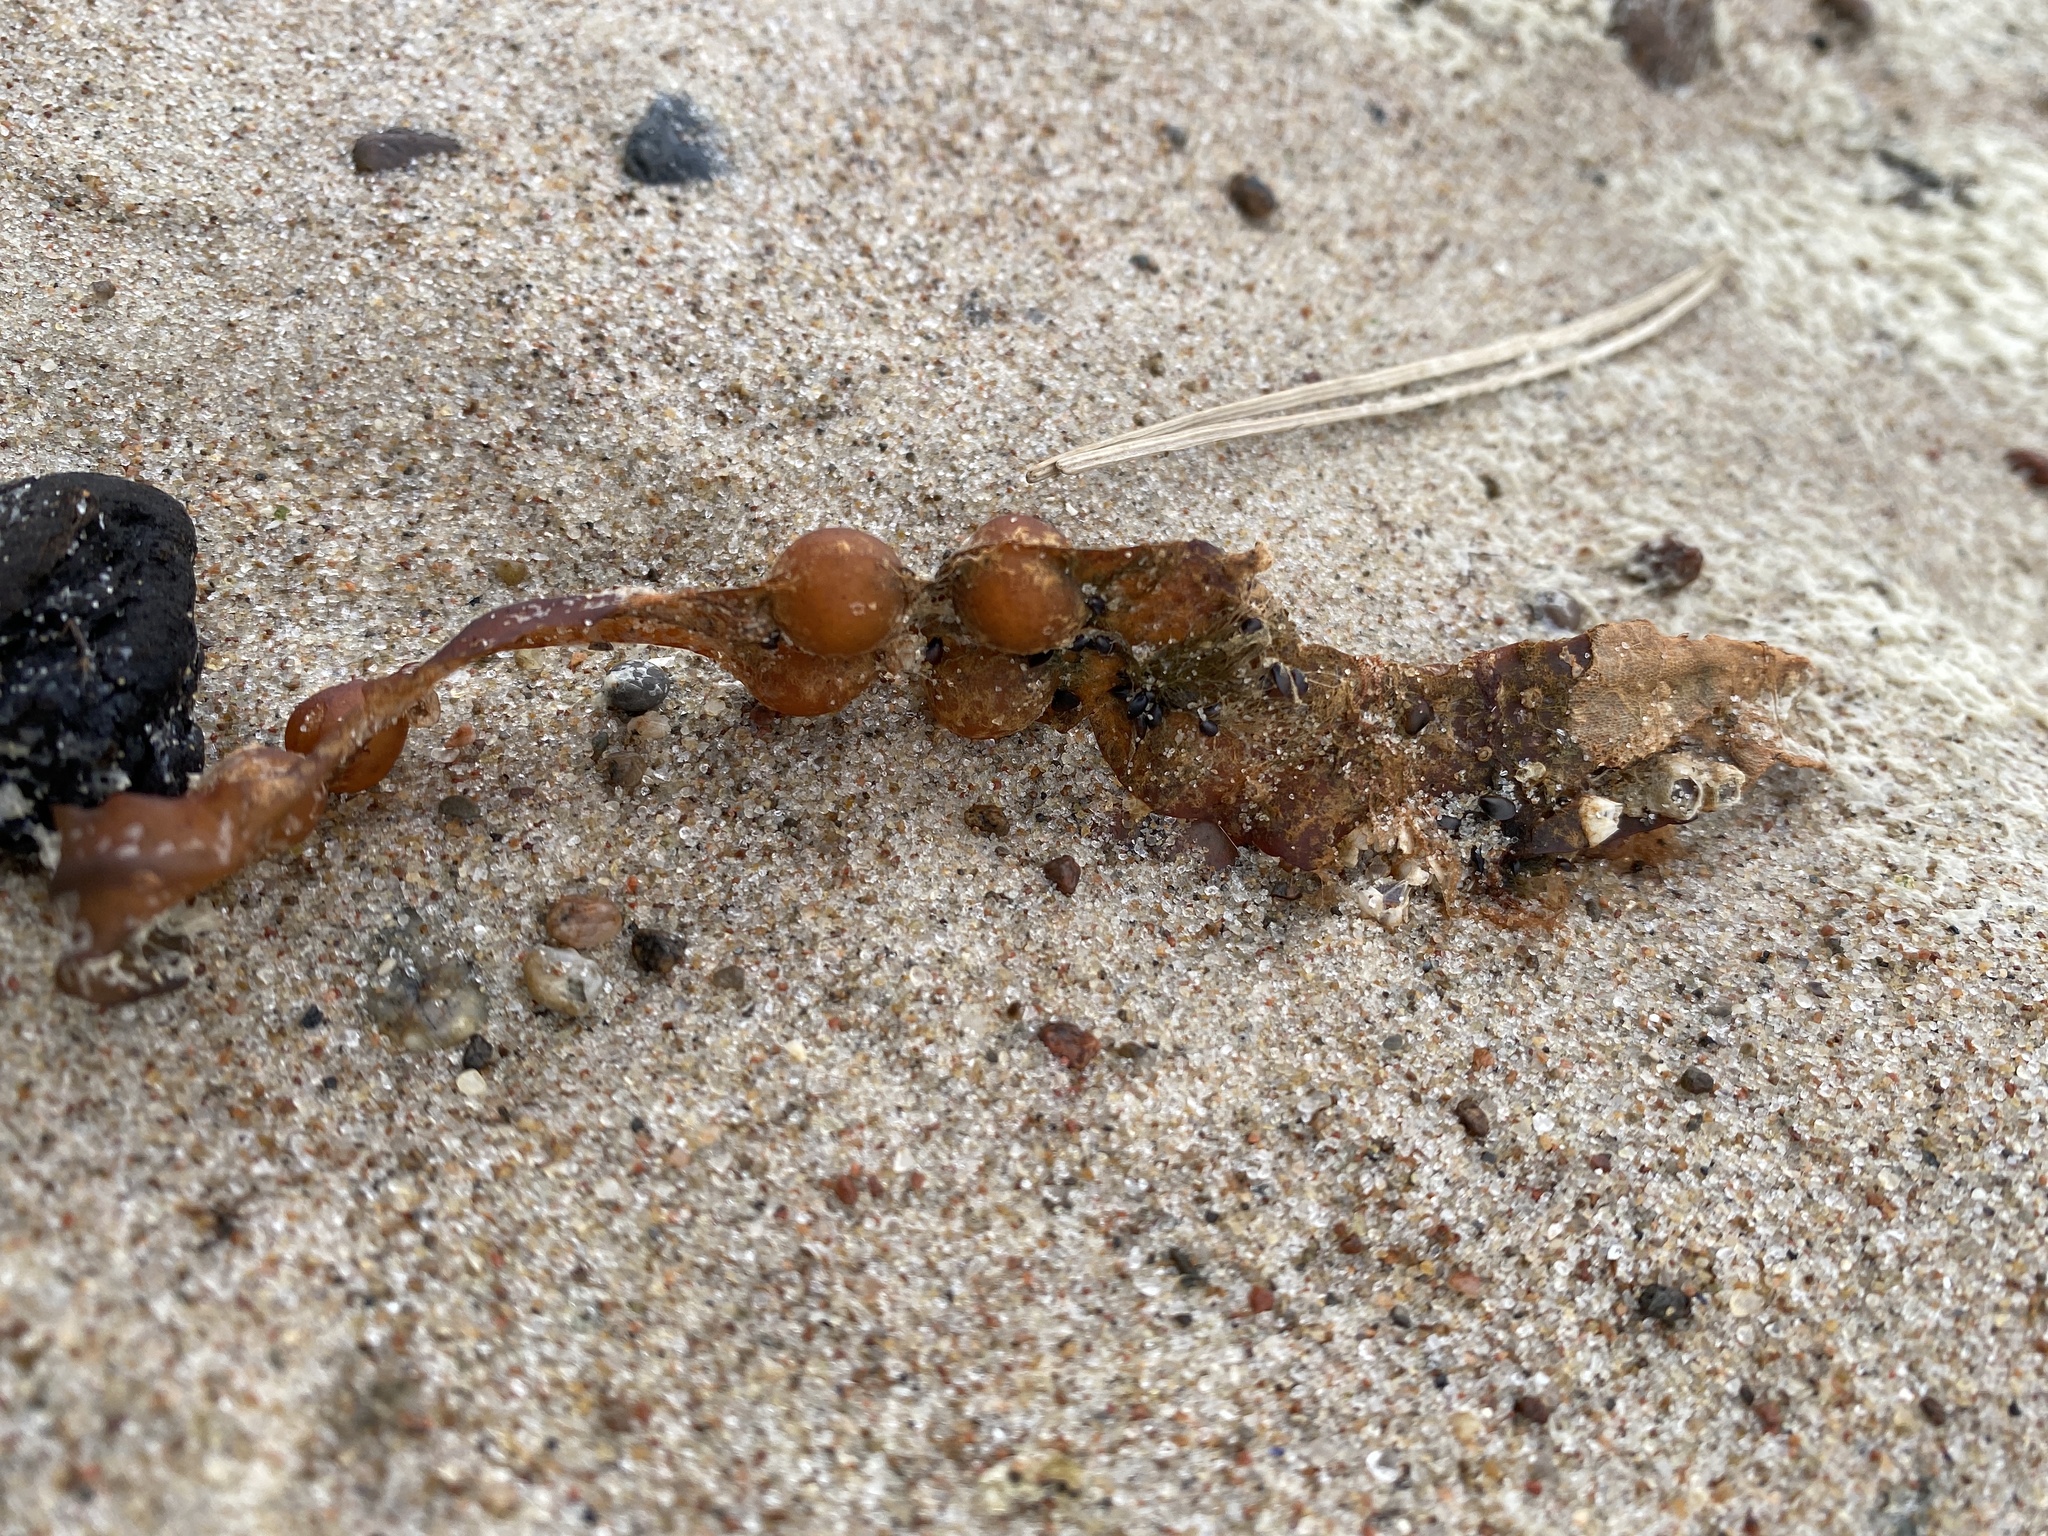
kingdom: Chromista
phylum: Ochrophyta
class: Phaeophyceae
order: Fucales
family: Fucaceae
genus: Fucus
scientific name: Fucus vesiculosus
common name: Bladder wrack
